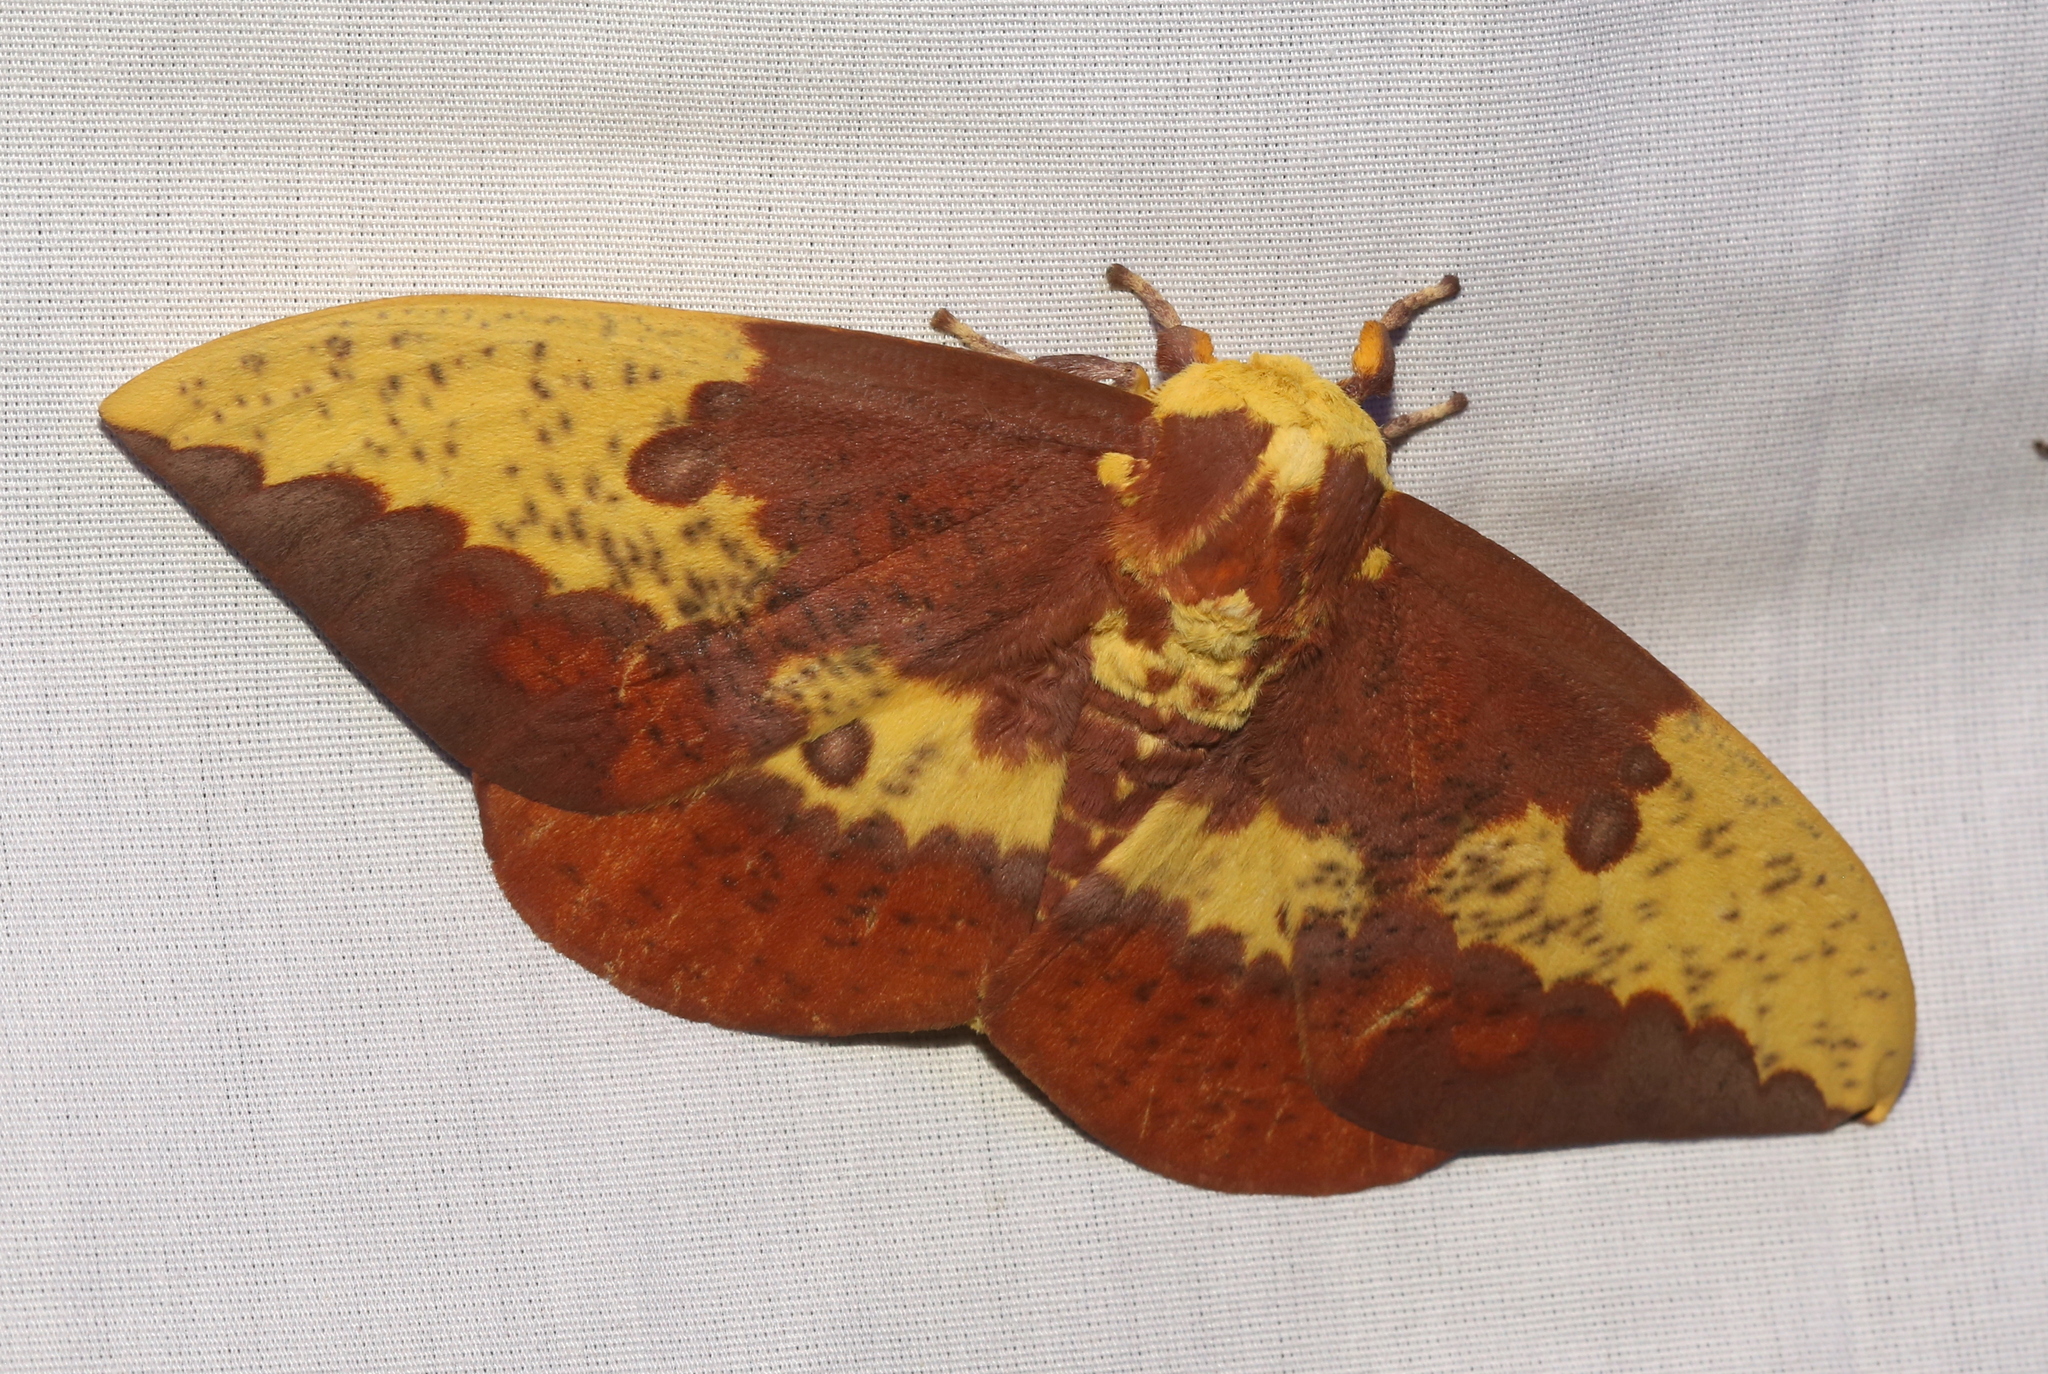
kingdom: Animalia
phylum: Arthropoda
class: Insecta
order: Lepidoptera
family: Saturniidae
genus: Eacles
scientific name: Eacles imperialis
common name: Imperial moth
